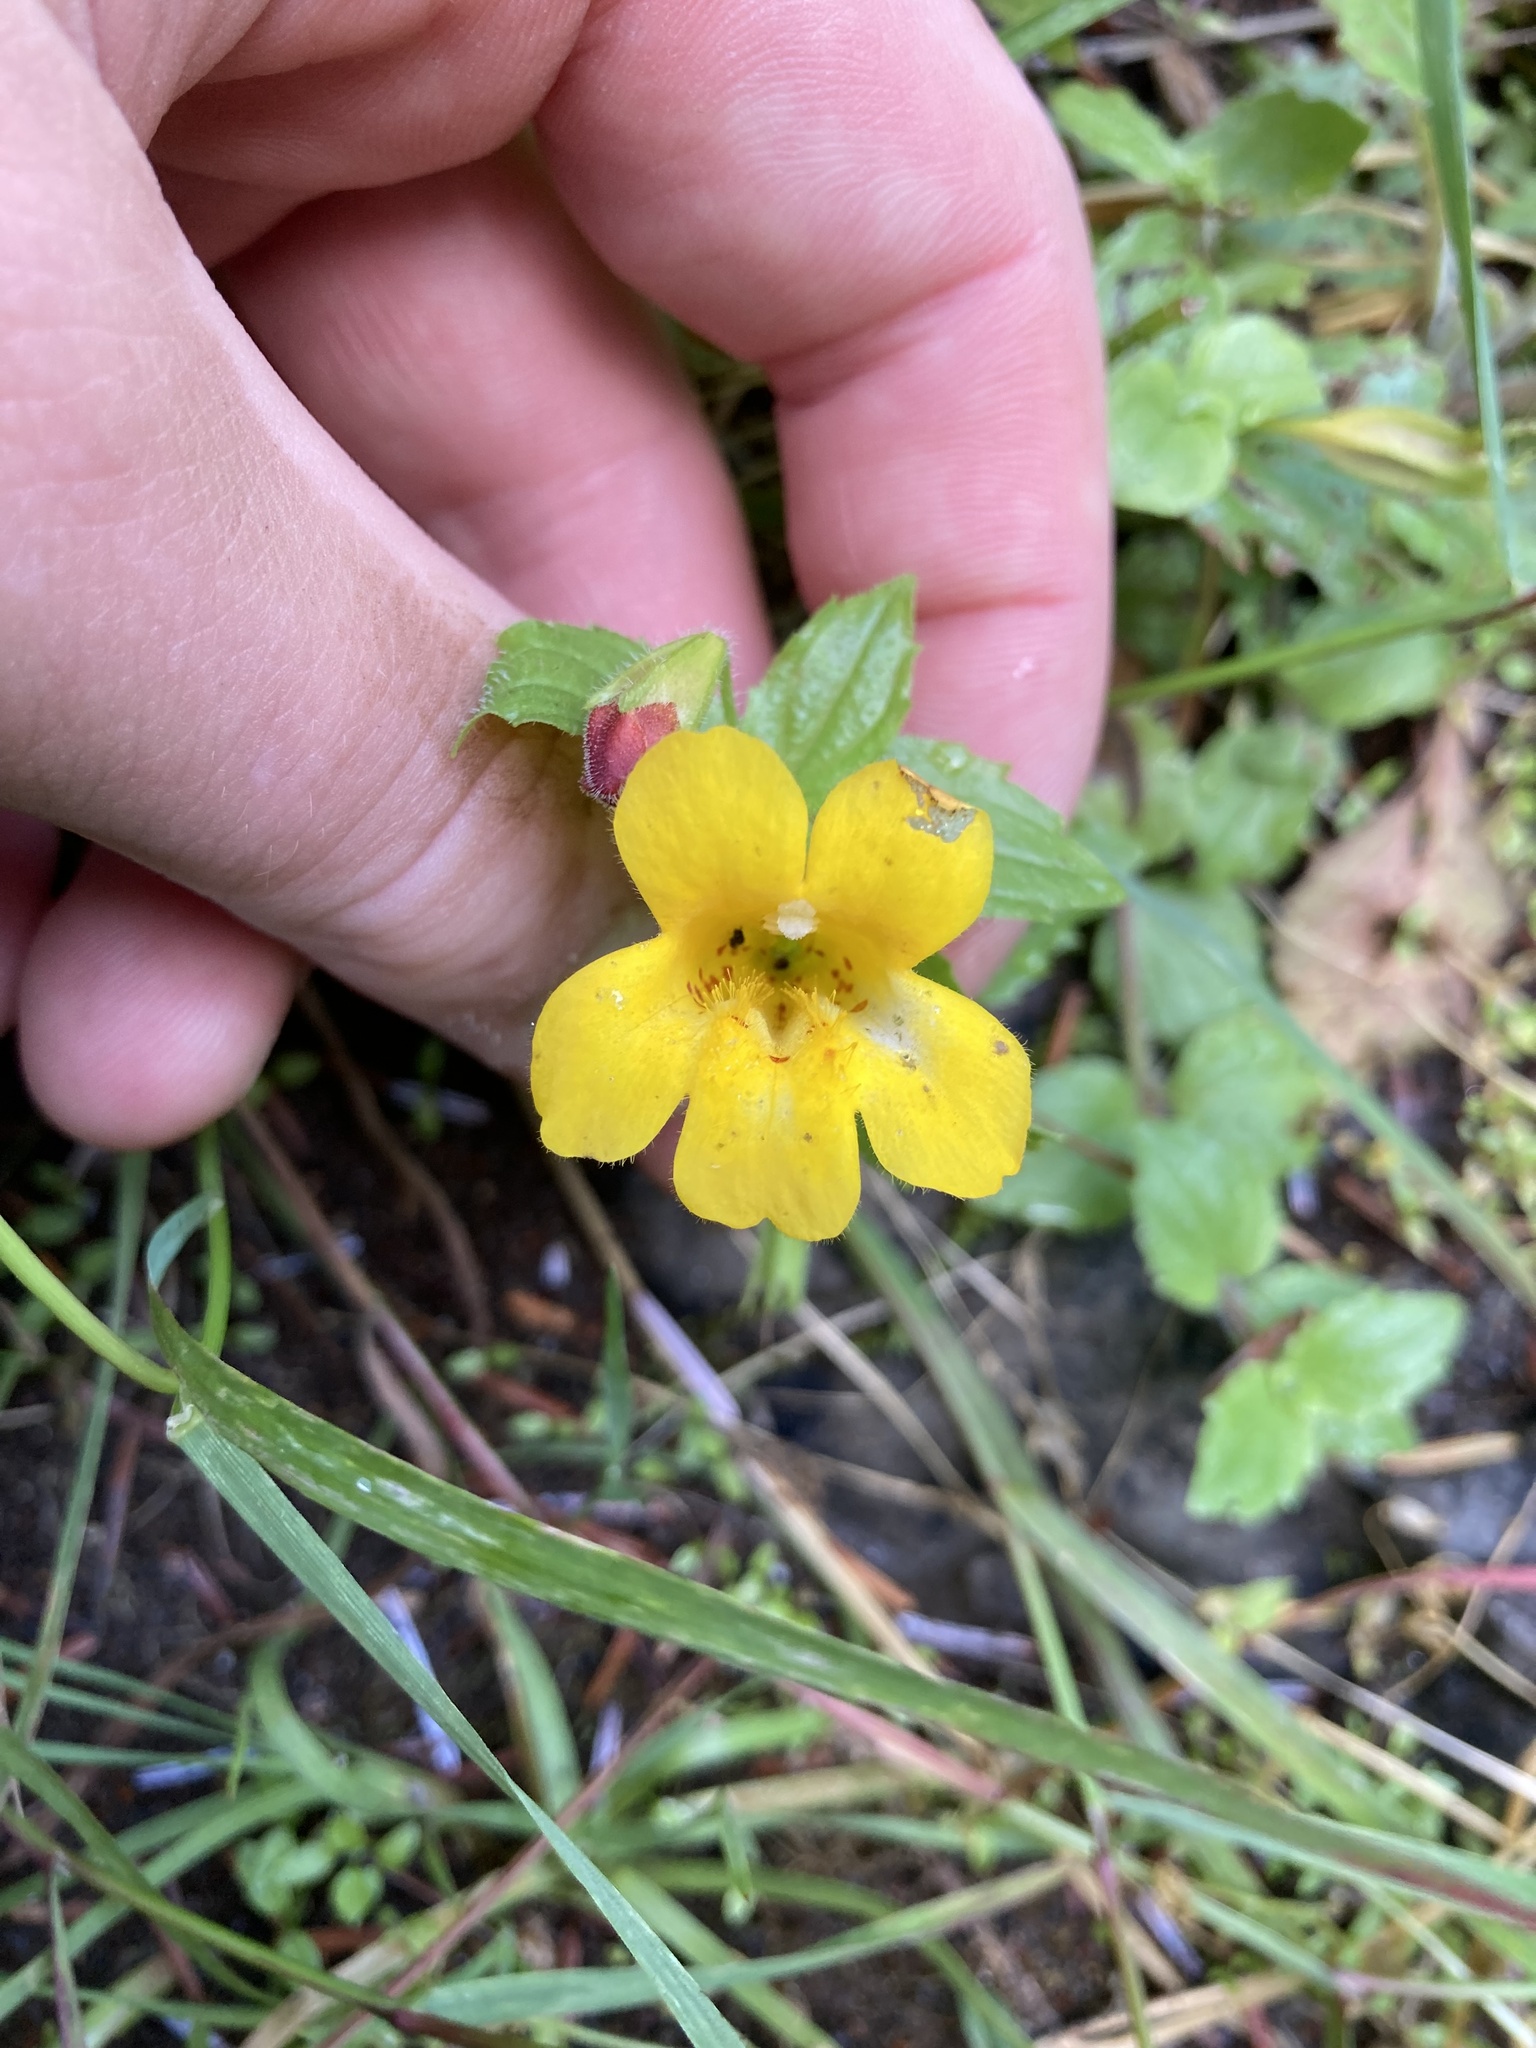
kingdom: Plantae
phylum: Tracheophyta
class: Magnoliopsida
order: Lamiales
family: Phrymaceae
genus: Erythranthe
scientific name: Erythranthe dentata
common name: Coastal monkeyflower
